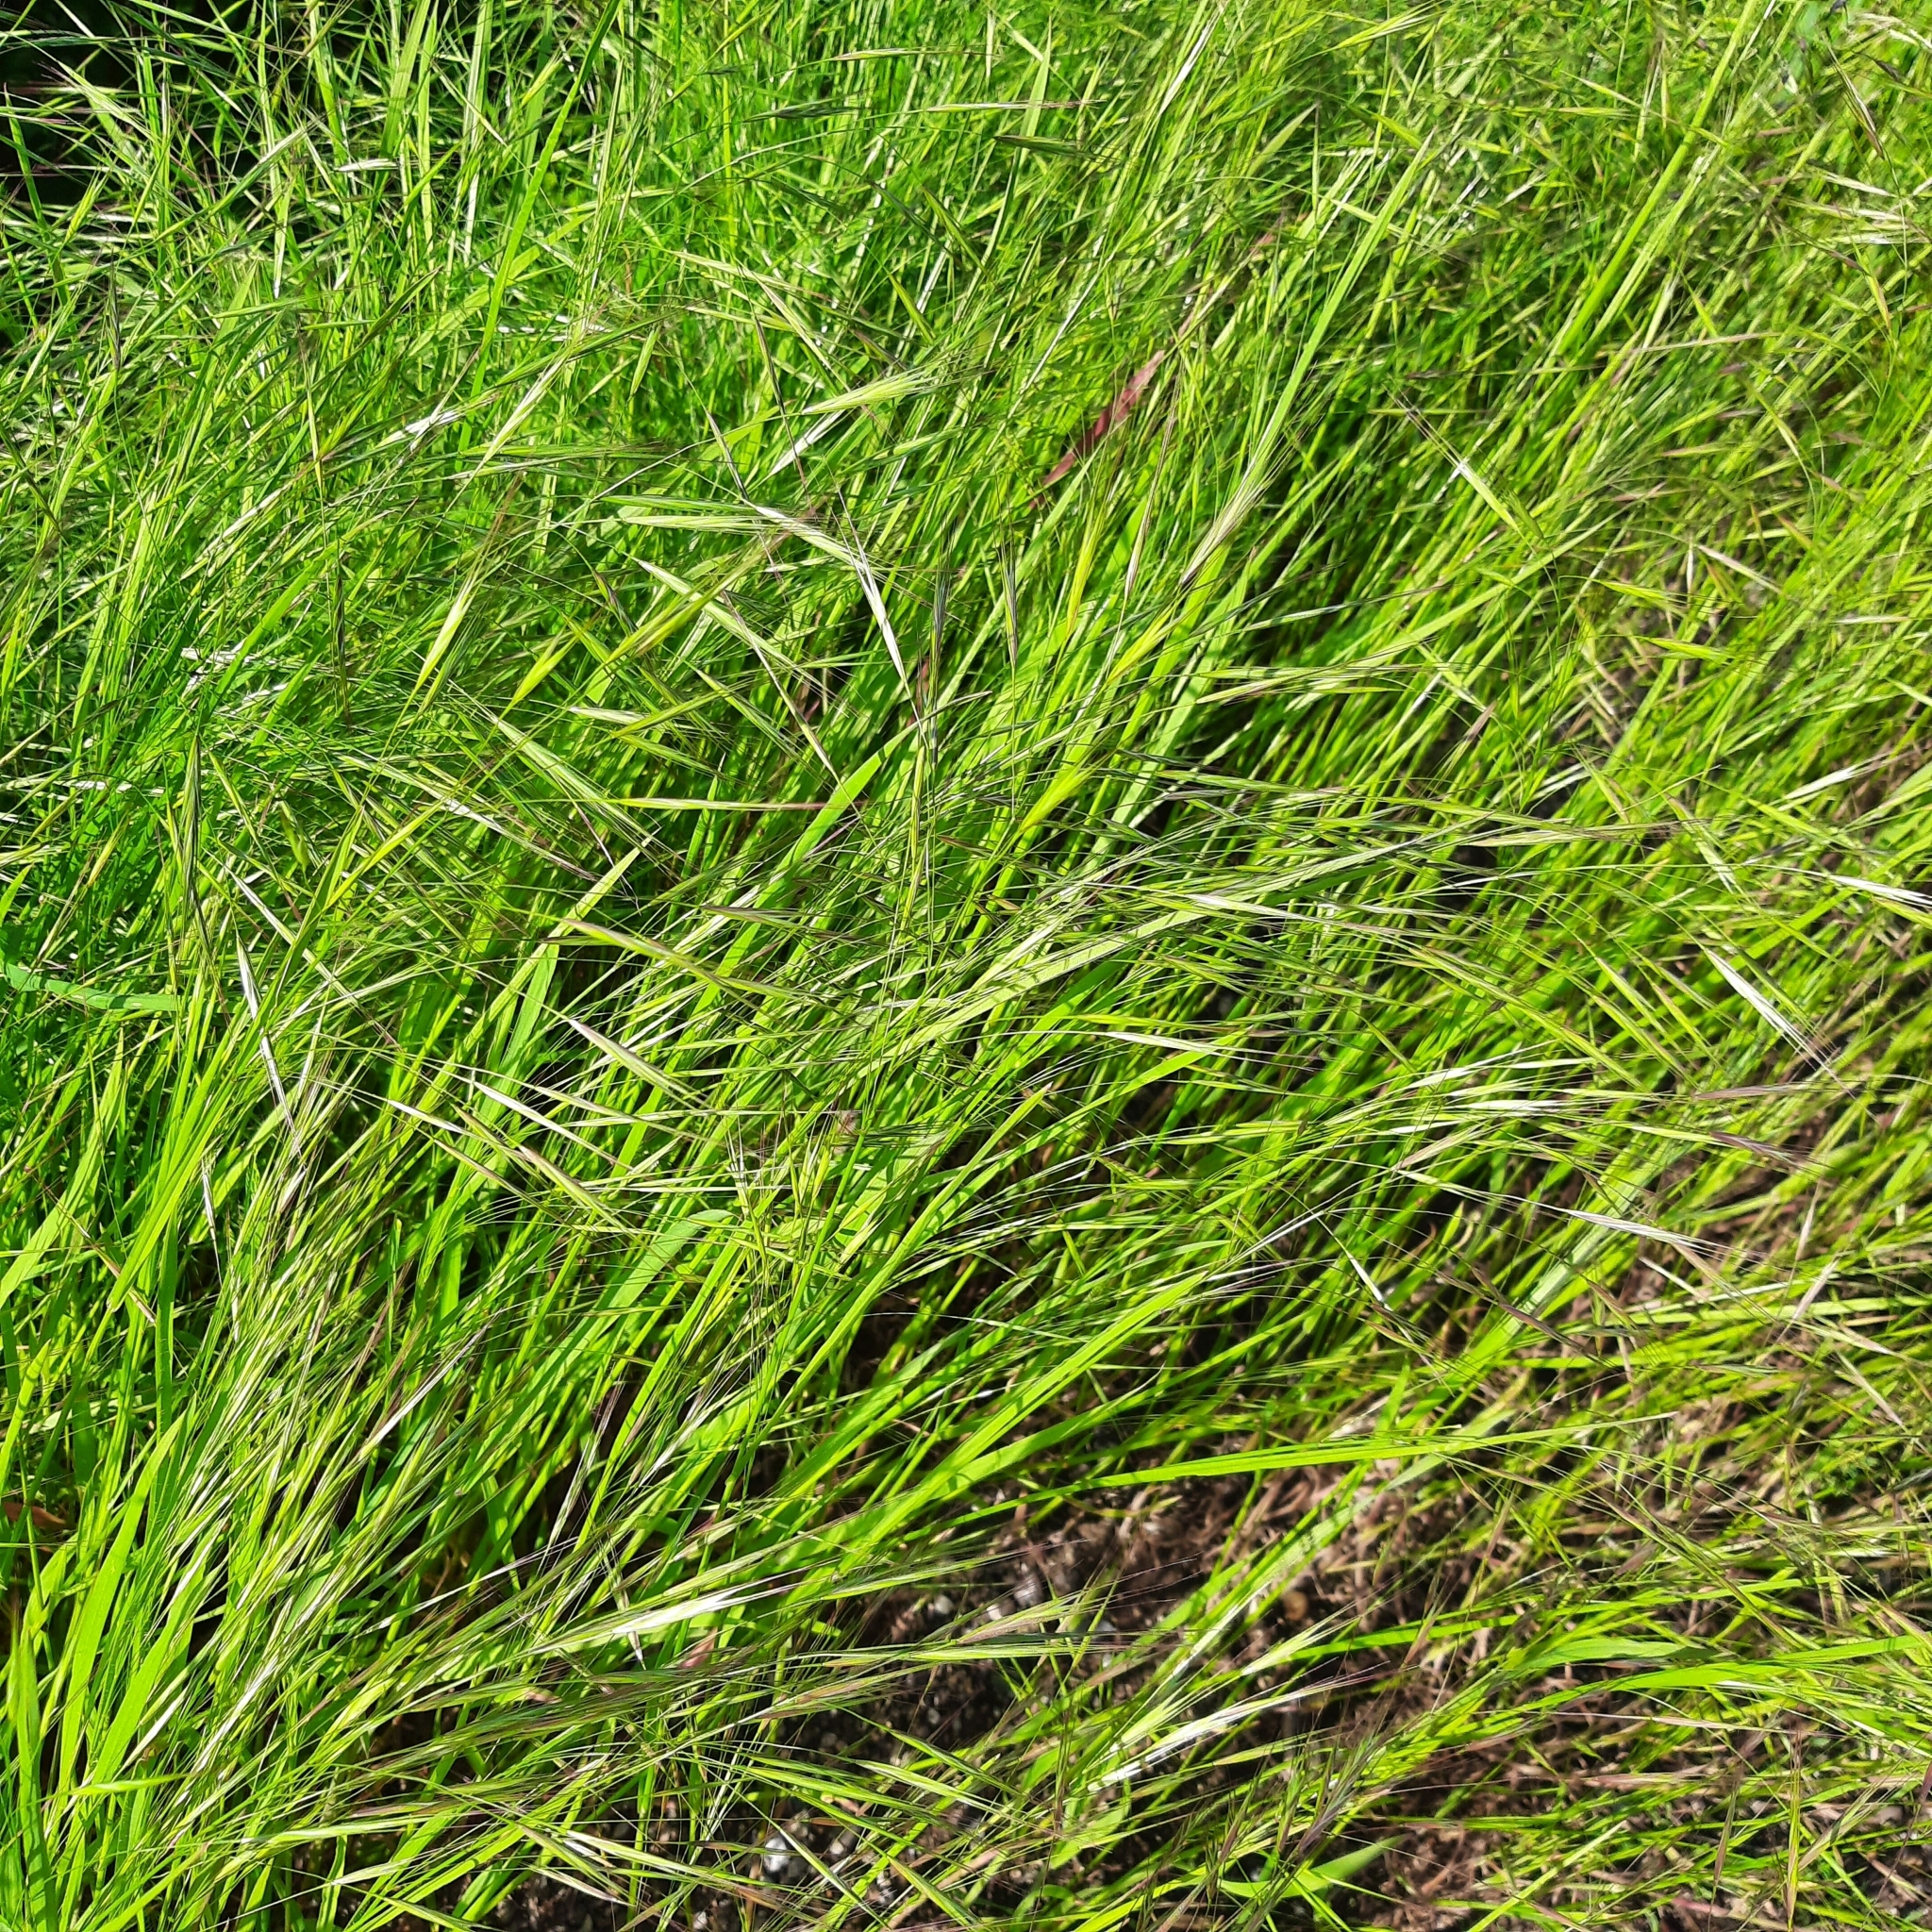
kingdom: Plantae
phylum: Tracheophyta
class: Liliopsida
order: Poales
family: Poaceae
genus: Bromus
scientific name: Bromus sterilis
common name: Poverty brome
